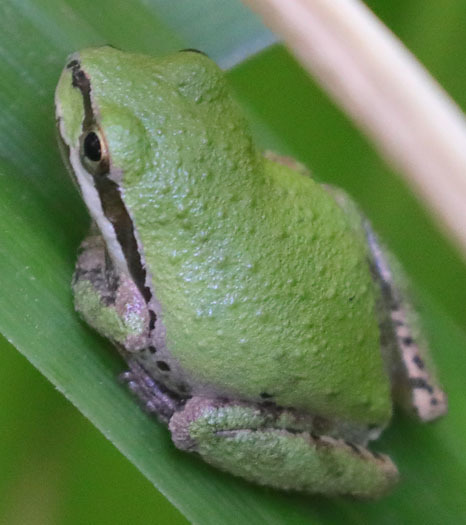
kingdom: Animalia
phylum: Chordata
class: Amphibia
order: Anura
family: Hylidae
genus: Pseudacris
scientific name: Pseudacris regilla
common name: Pacific chorus frog
